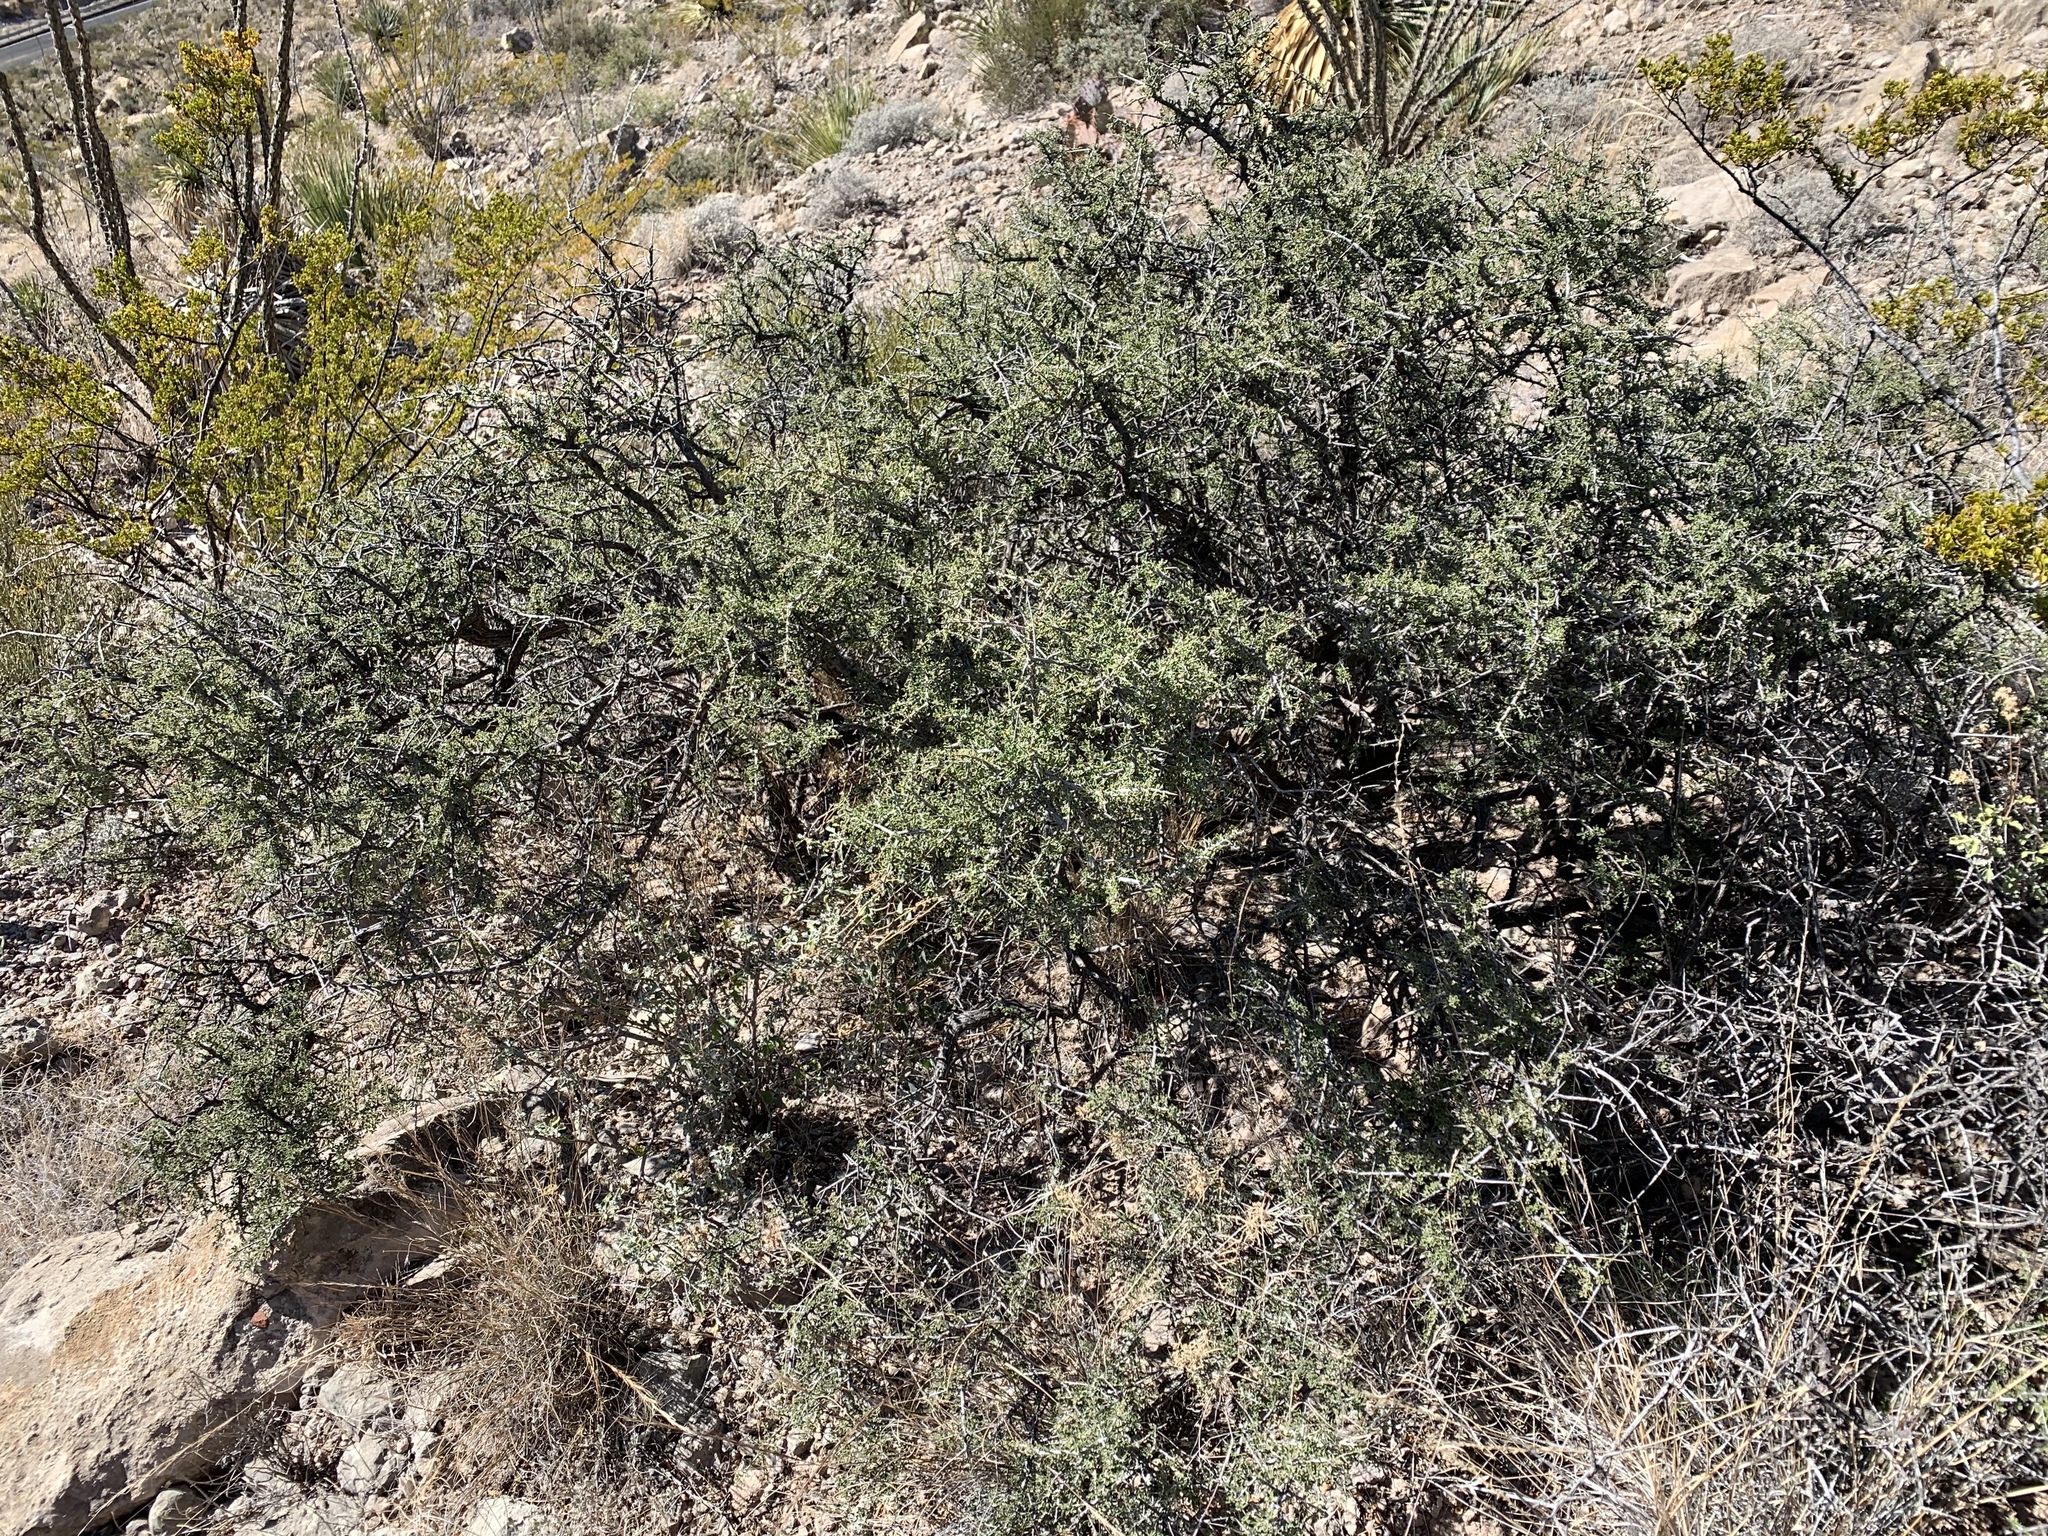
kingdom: Plantae
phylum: Tracheophyta
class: Magnoliopsida
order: Rosales
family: Rhamnaceae
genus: Condalia
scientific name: Condalia warnockii
